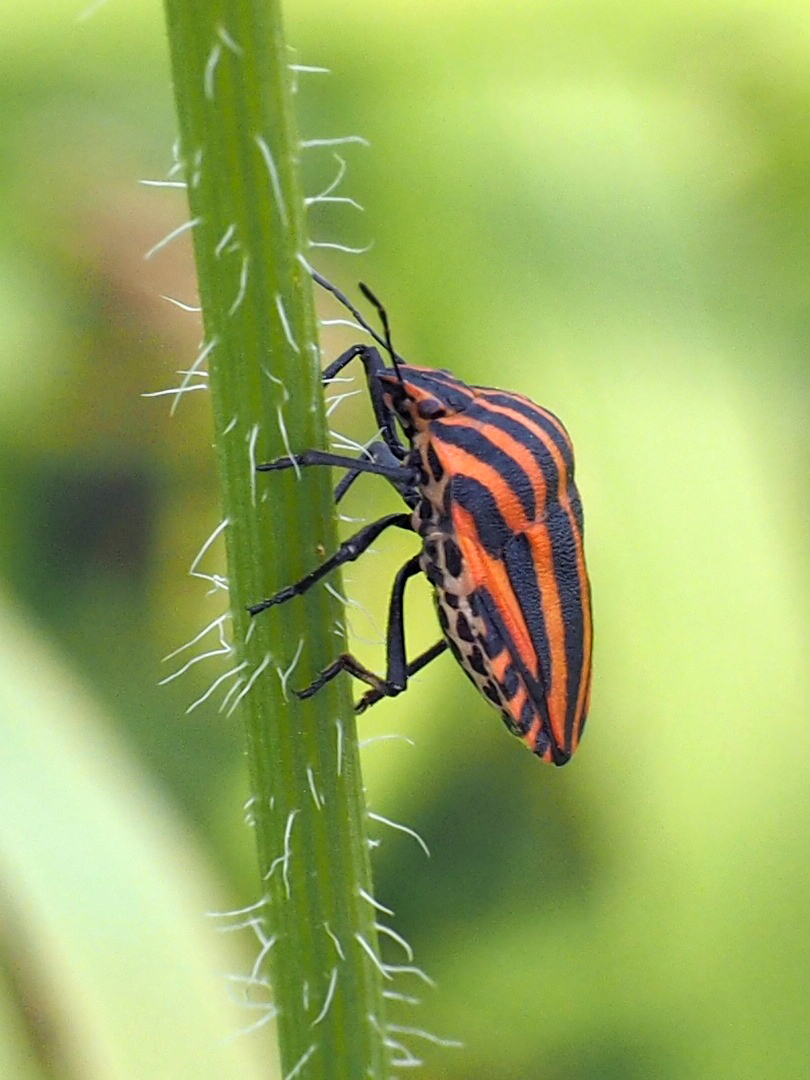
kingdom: Animalia
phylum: Arthropoda
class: Insecta
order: Hemiptera
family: Pentatomidae
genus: Graphosoma
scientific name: Graphosoma italicum
